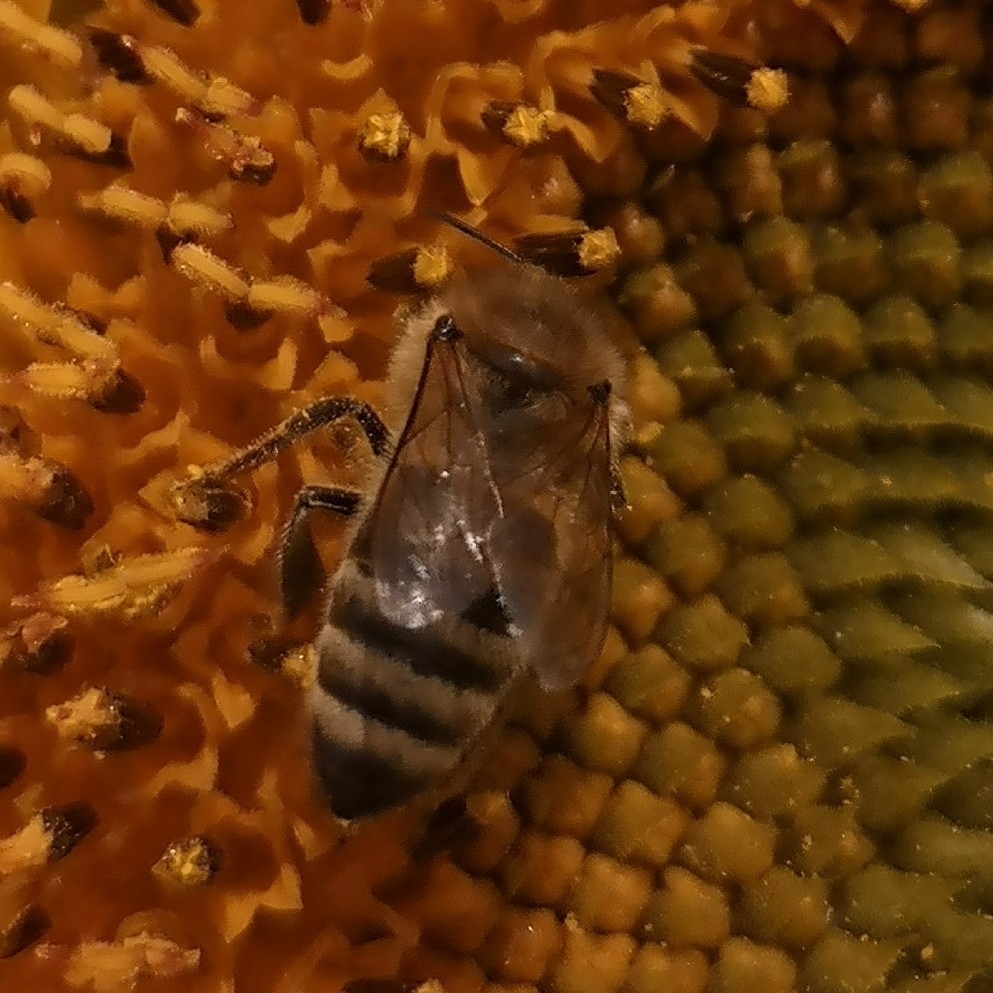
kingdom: Animalia
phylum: Arthropoda
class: Insecta
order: Hymenoptera
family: Apidae
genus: Apis
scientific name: Apis mellifera
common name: Honey bee
